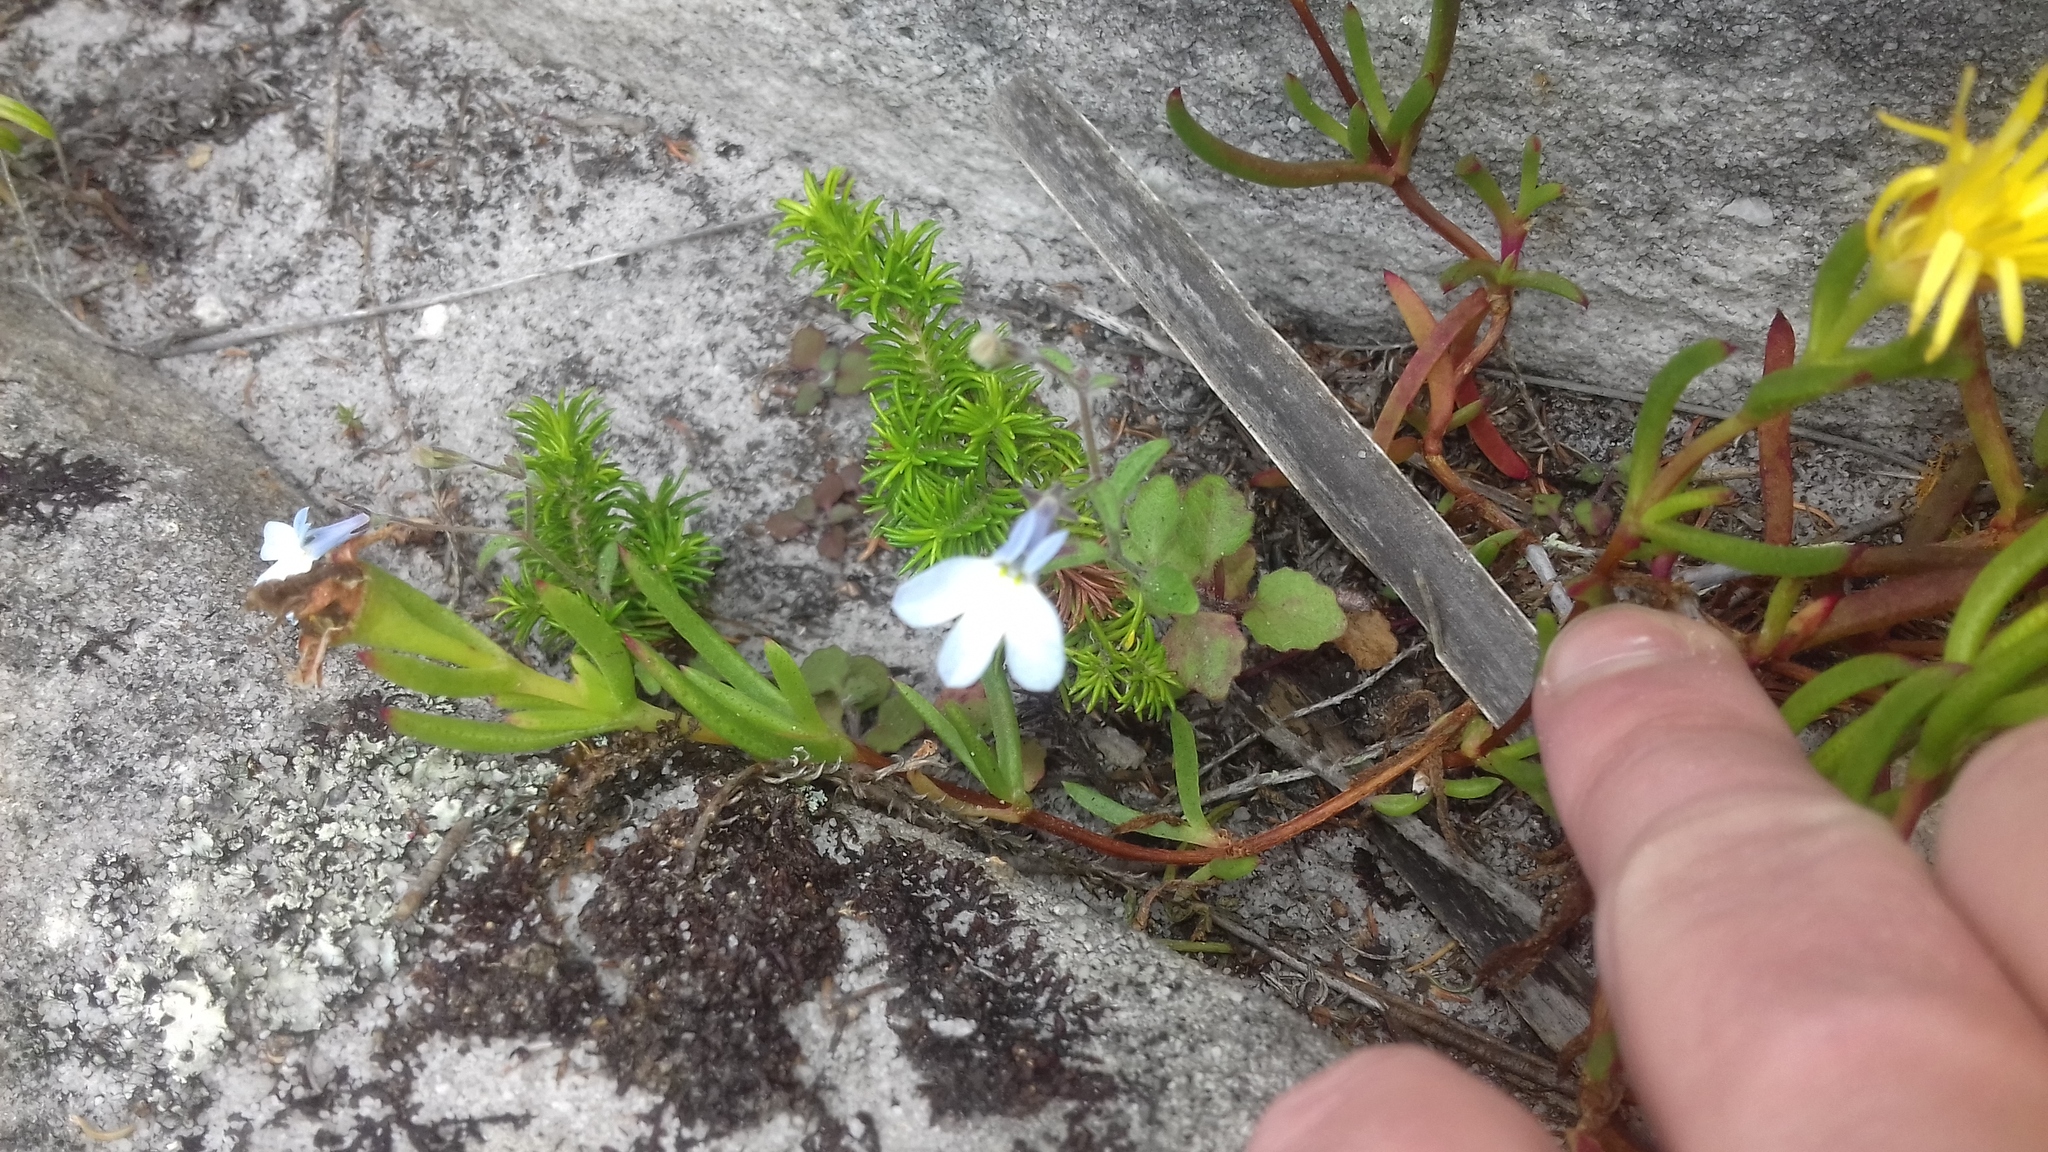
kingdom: Plantae
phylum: Tracheophyta
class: Magnoliopsida
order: Asterales
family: Campanulaceae
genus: Lobelia
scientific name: Lobelia boivinii
